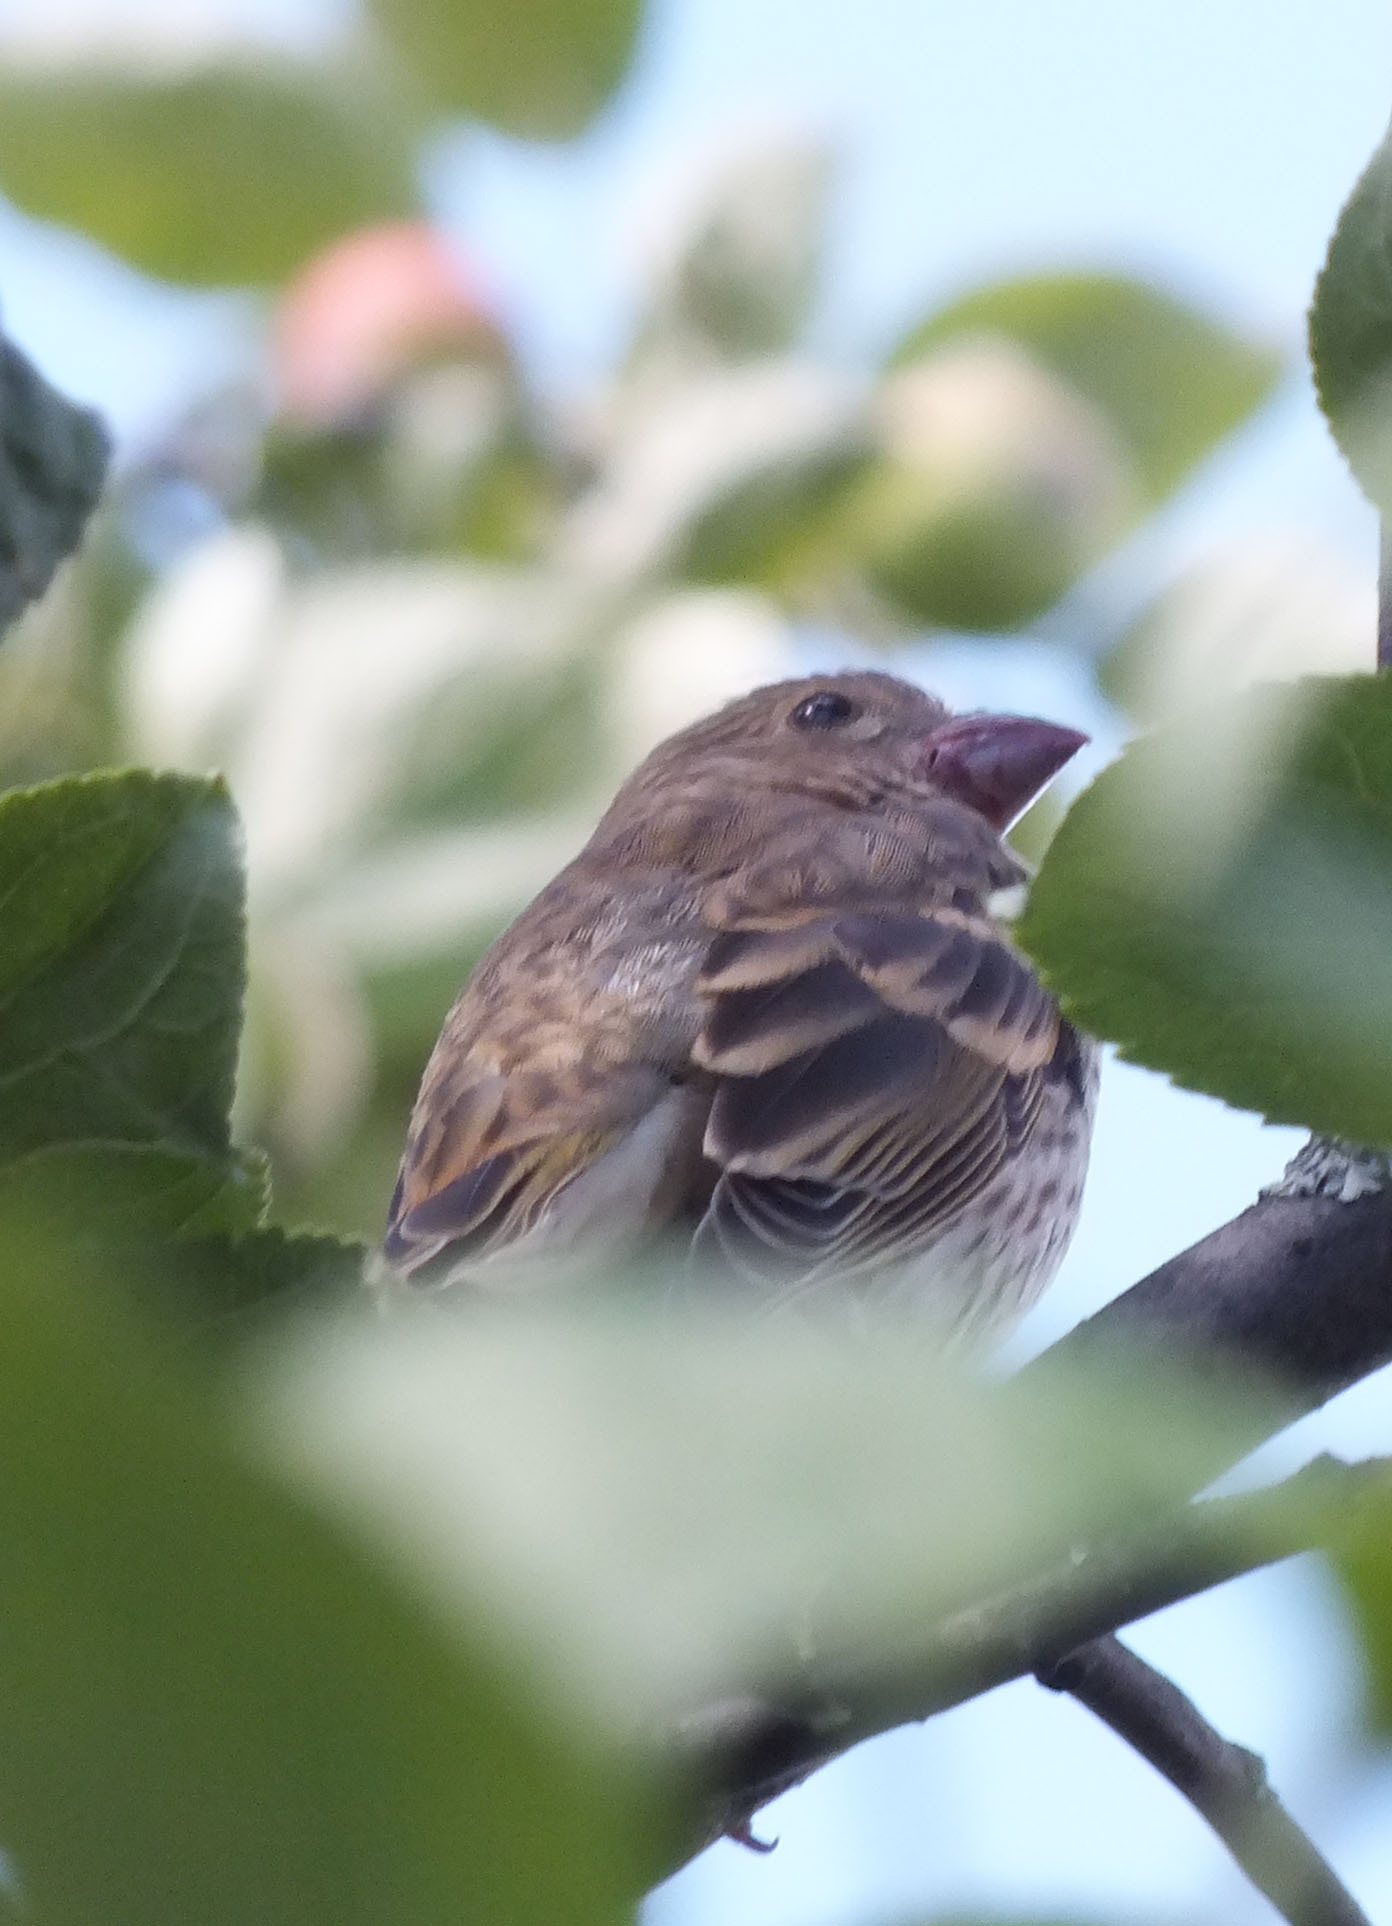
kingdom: Animalia
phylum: Chordata
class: Aves
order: Passeriformes
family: Fringillidae
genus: Carpodacus
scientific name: Carpodacus erythrinus
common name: Common rosefinch
